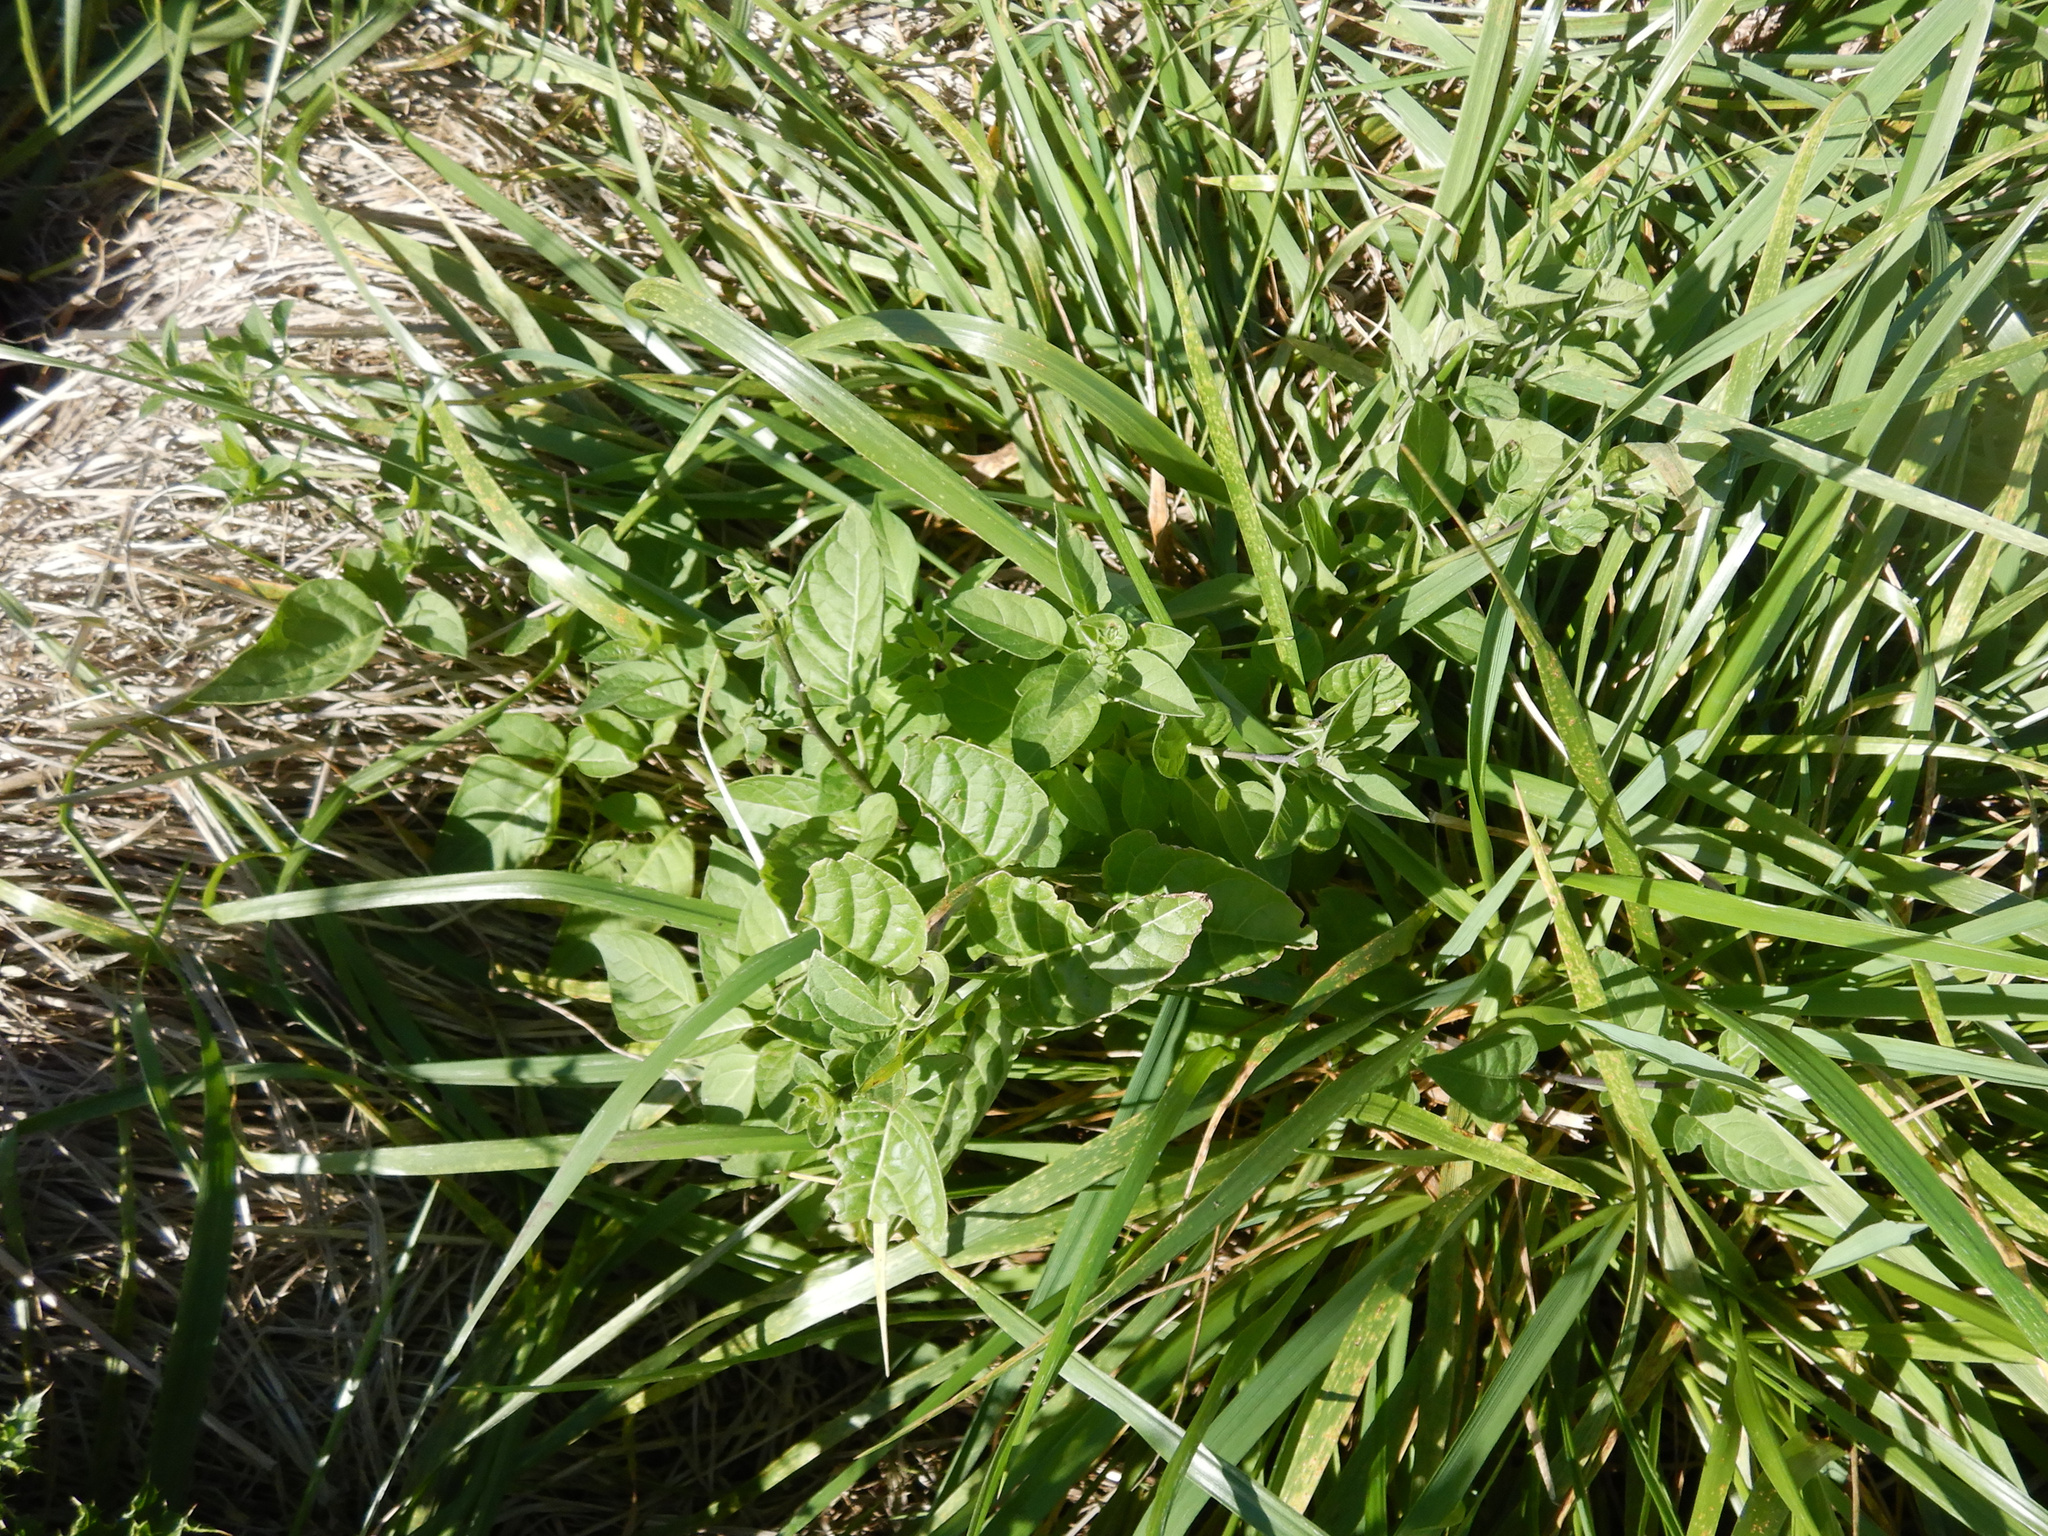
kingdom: Plantae
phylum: Tracheophyta
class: Magnoliopsida
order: Solanales
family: Solanaceae
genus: Solanum
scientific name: Solanum dulcamara
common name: Climbing nightshade
